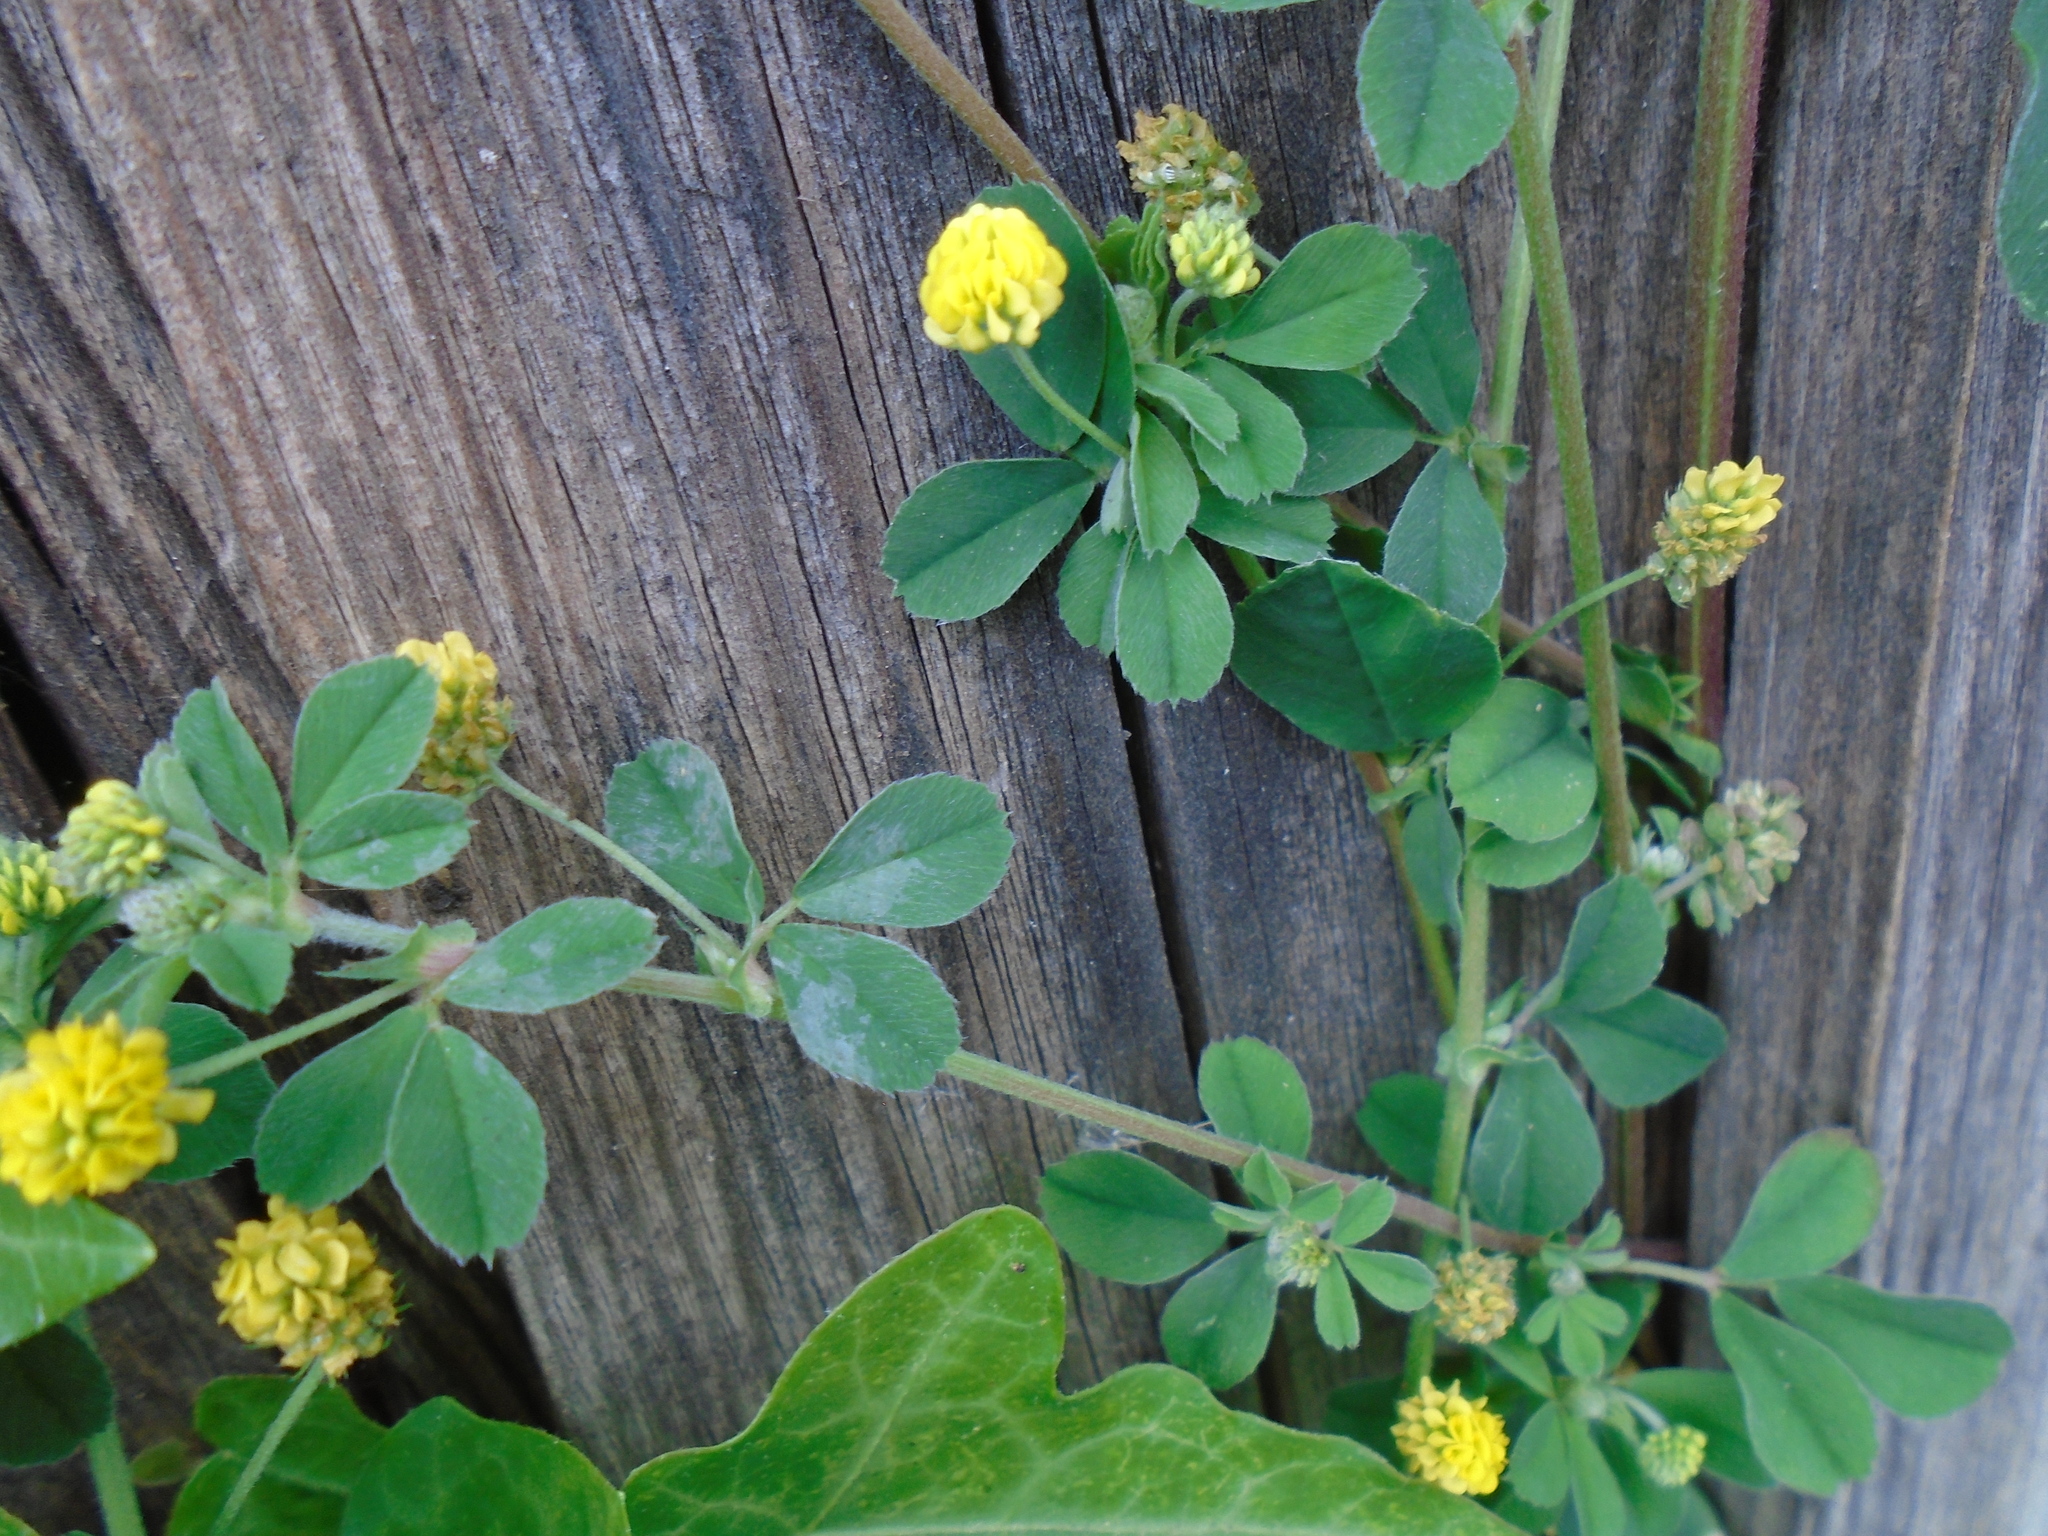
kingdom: Plantae
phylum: Tracheophyta
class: Magnoliopsida
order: Fabales
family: Fabaceae
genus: Medicago
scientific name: Medicago lupulina
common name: Black medick
